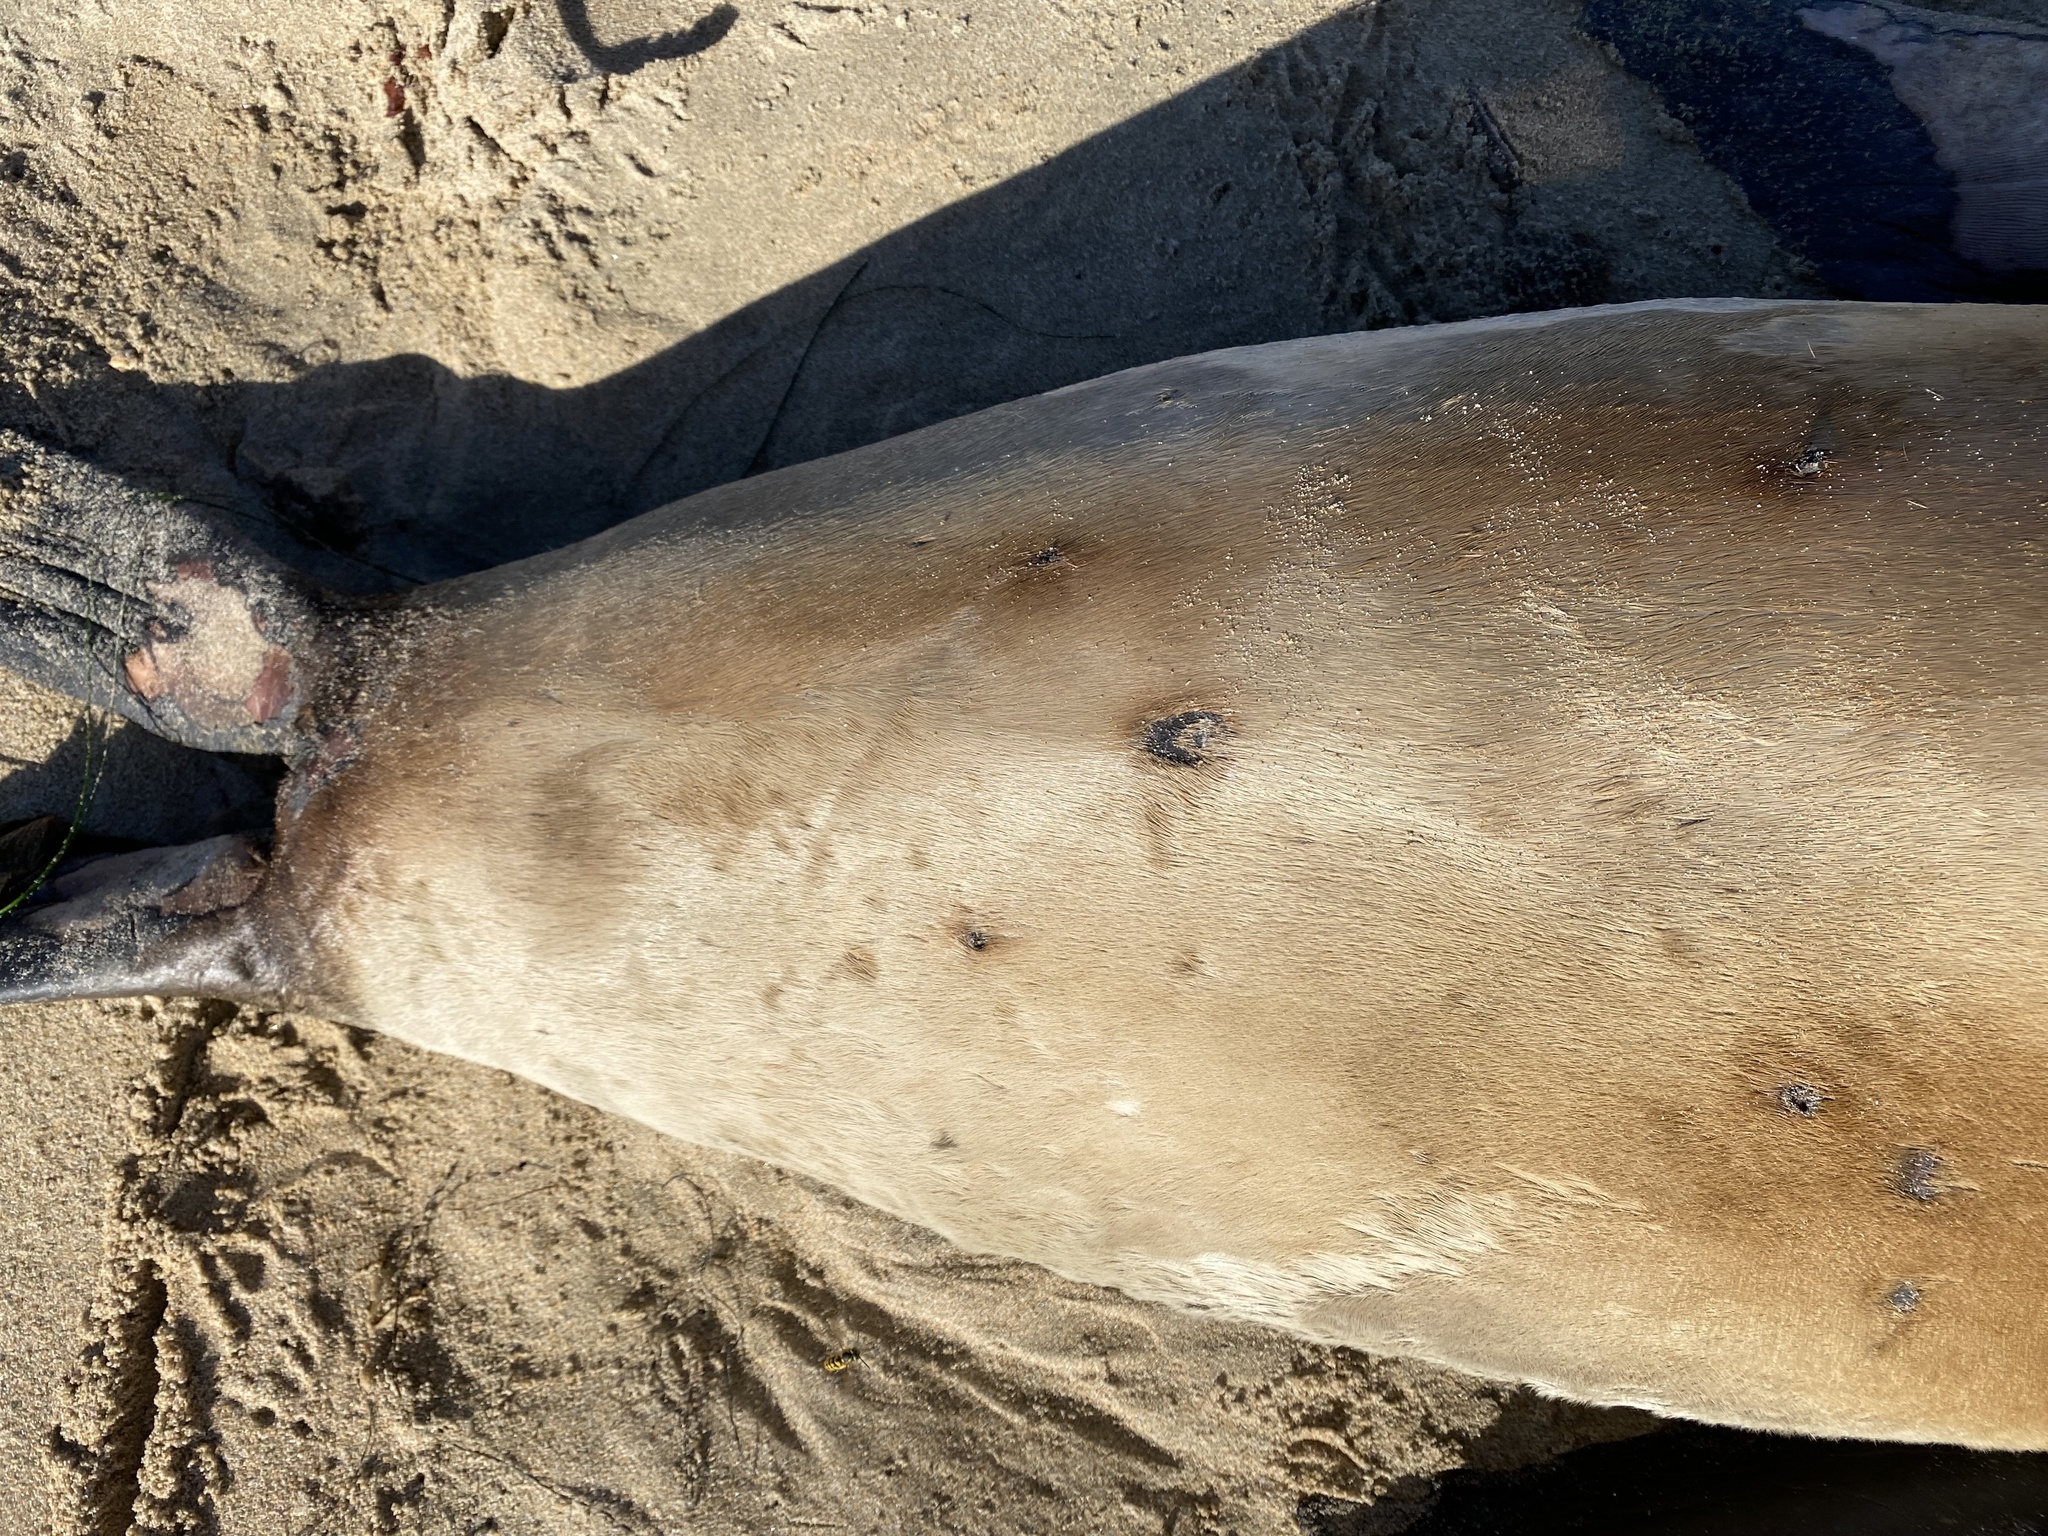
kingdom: Animalia
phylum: Chordata
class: Mammalia
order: Carnivora
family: Otariidae
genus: Zalophus
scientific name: Zalophus californianus
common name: California sea lion
